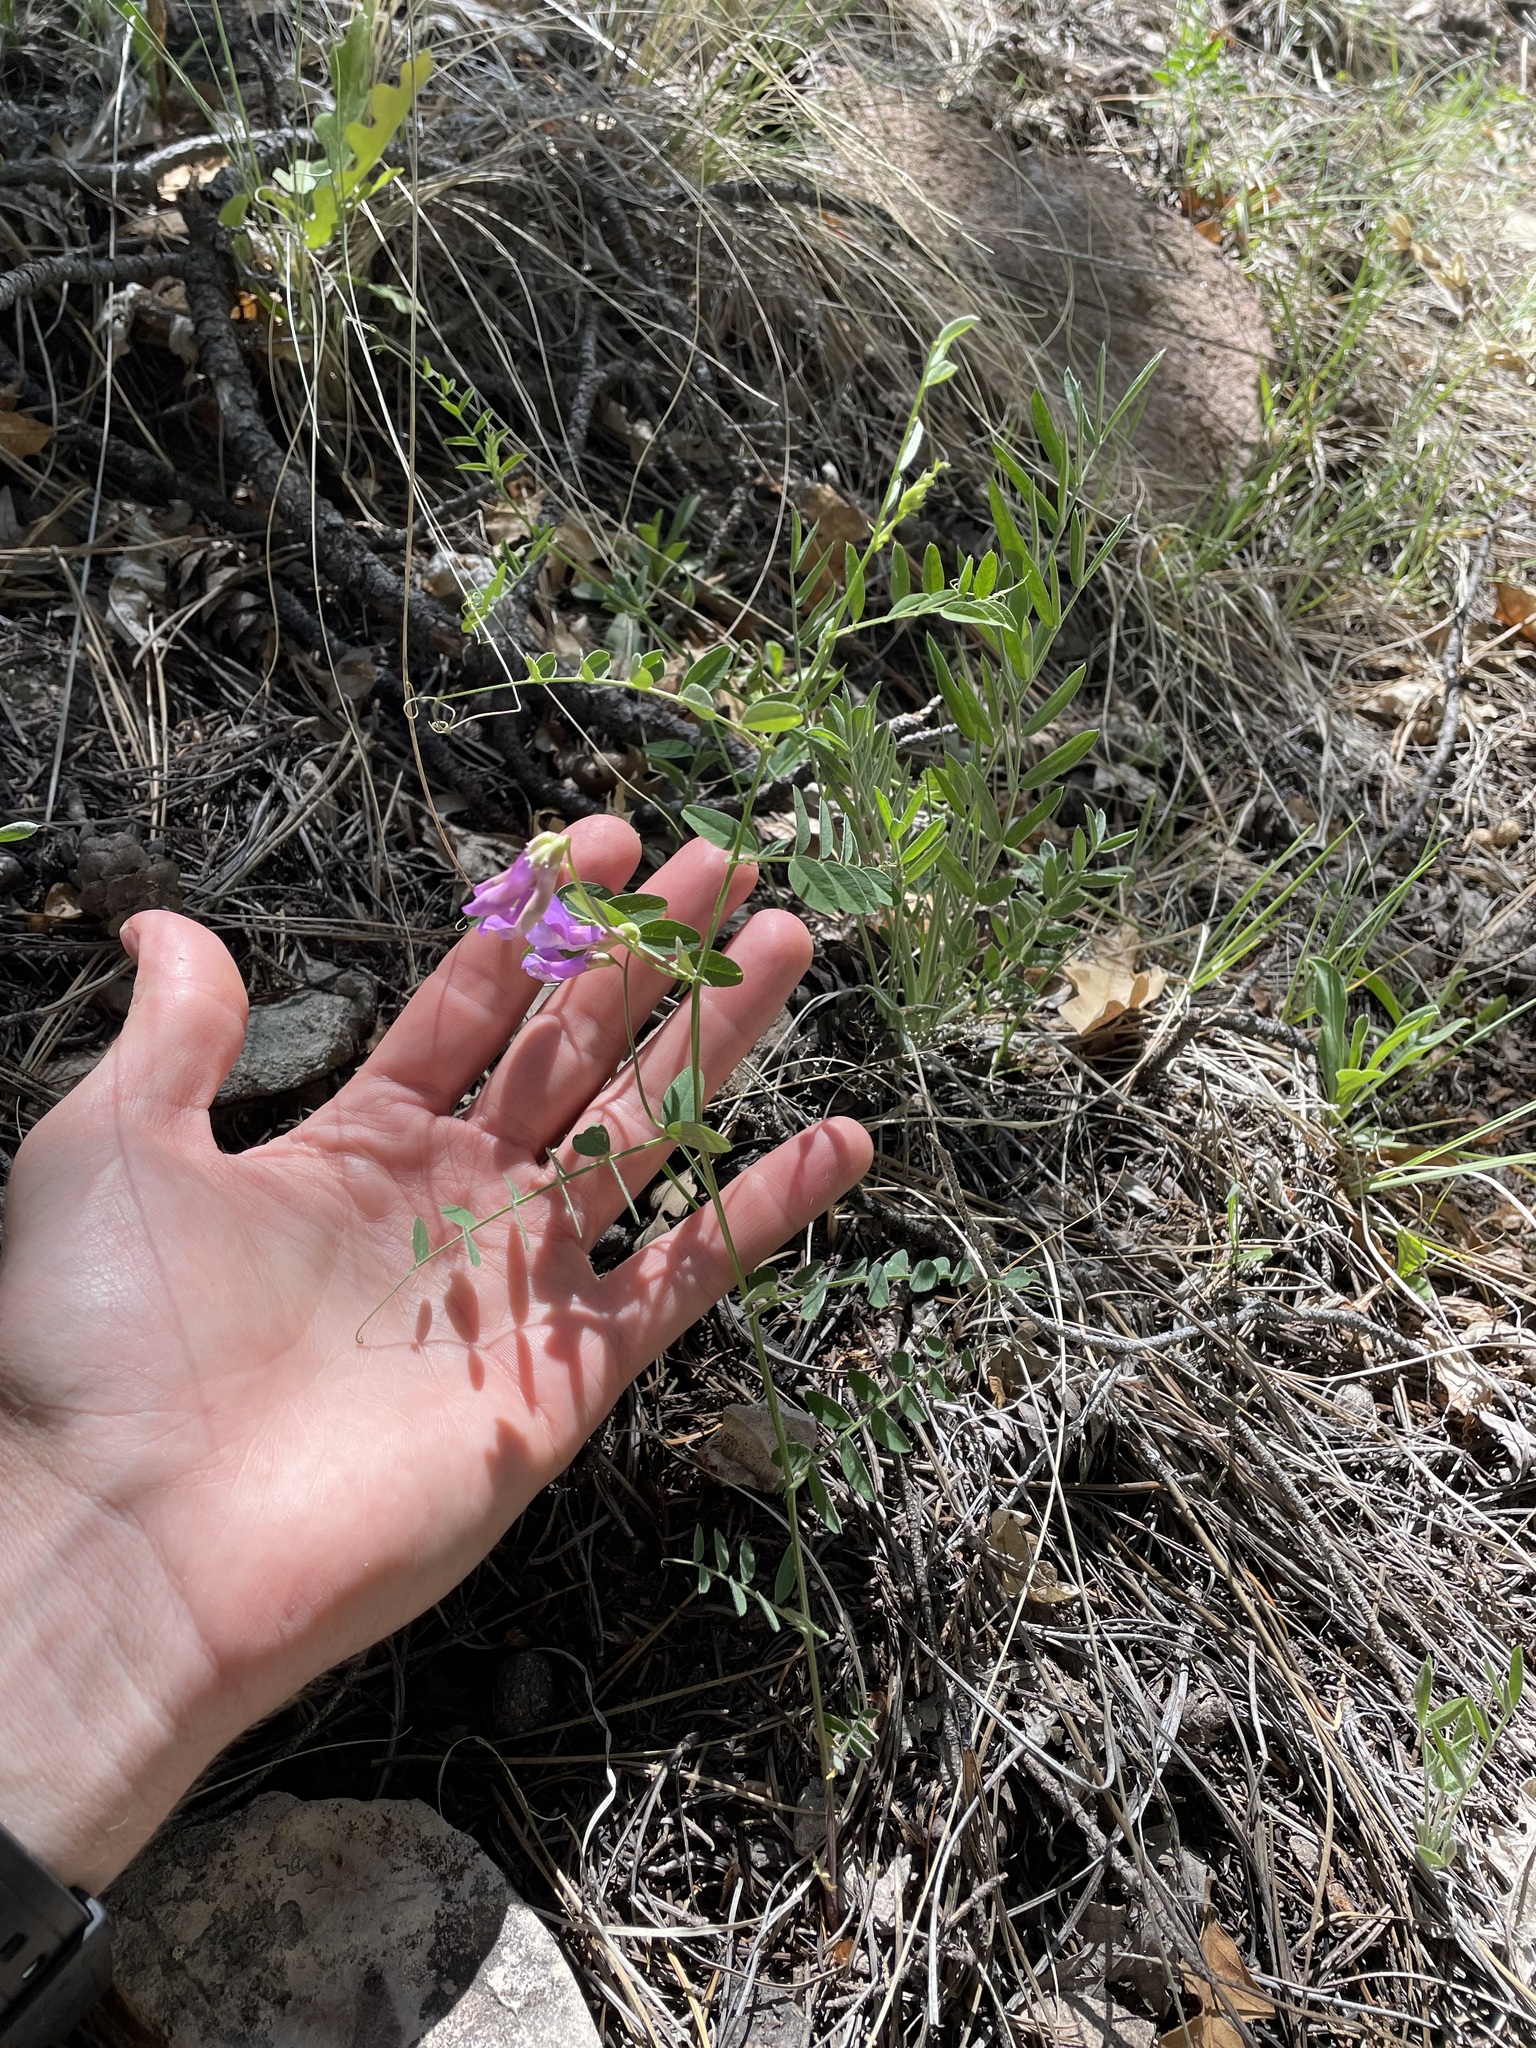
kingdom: Plantae
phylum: Tracheophyta
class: Magnoliopsida
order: Fabales
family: Fabaceae
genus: Vicia
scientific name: Vicia americana
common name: American vetch
